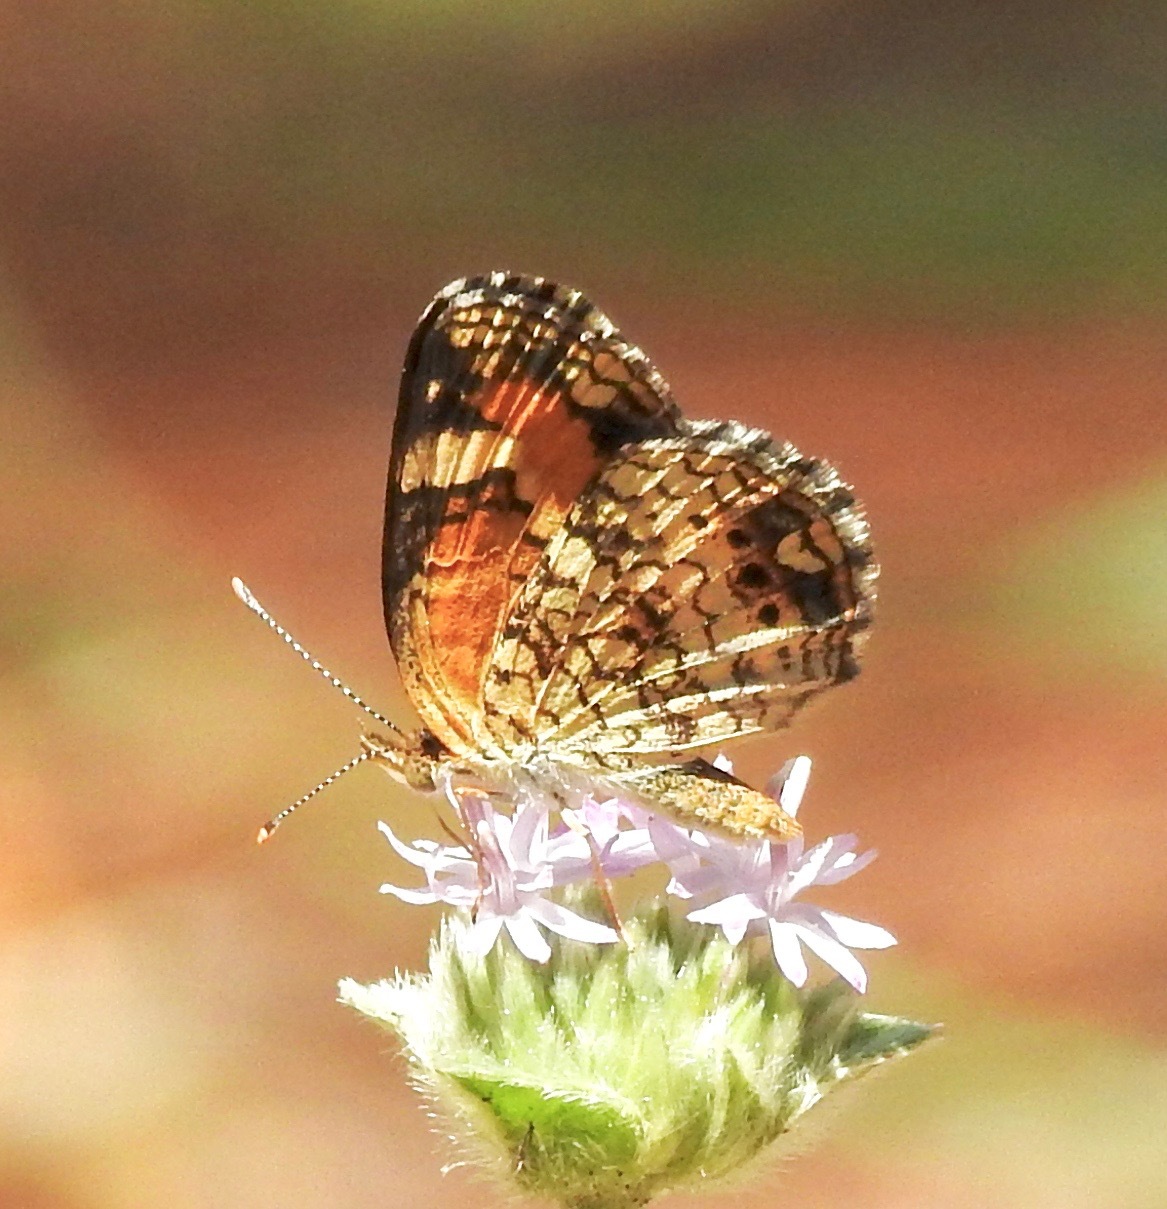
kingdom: Animalia
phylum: Arthropoda
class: Insecta
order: Lepidoptera
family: Nymphalidae
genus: Phyciodes
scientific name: Phyciodes phaon
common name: Phaon crescent
